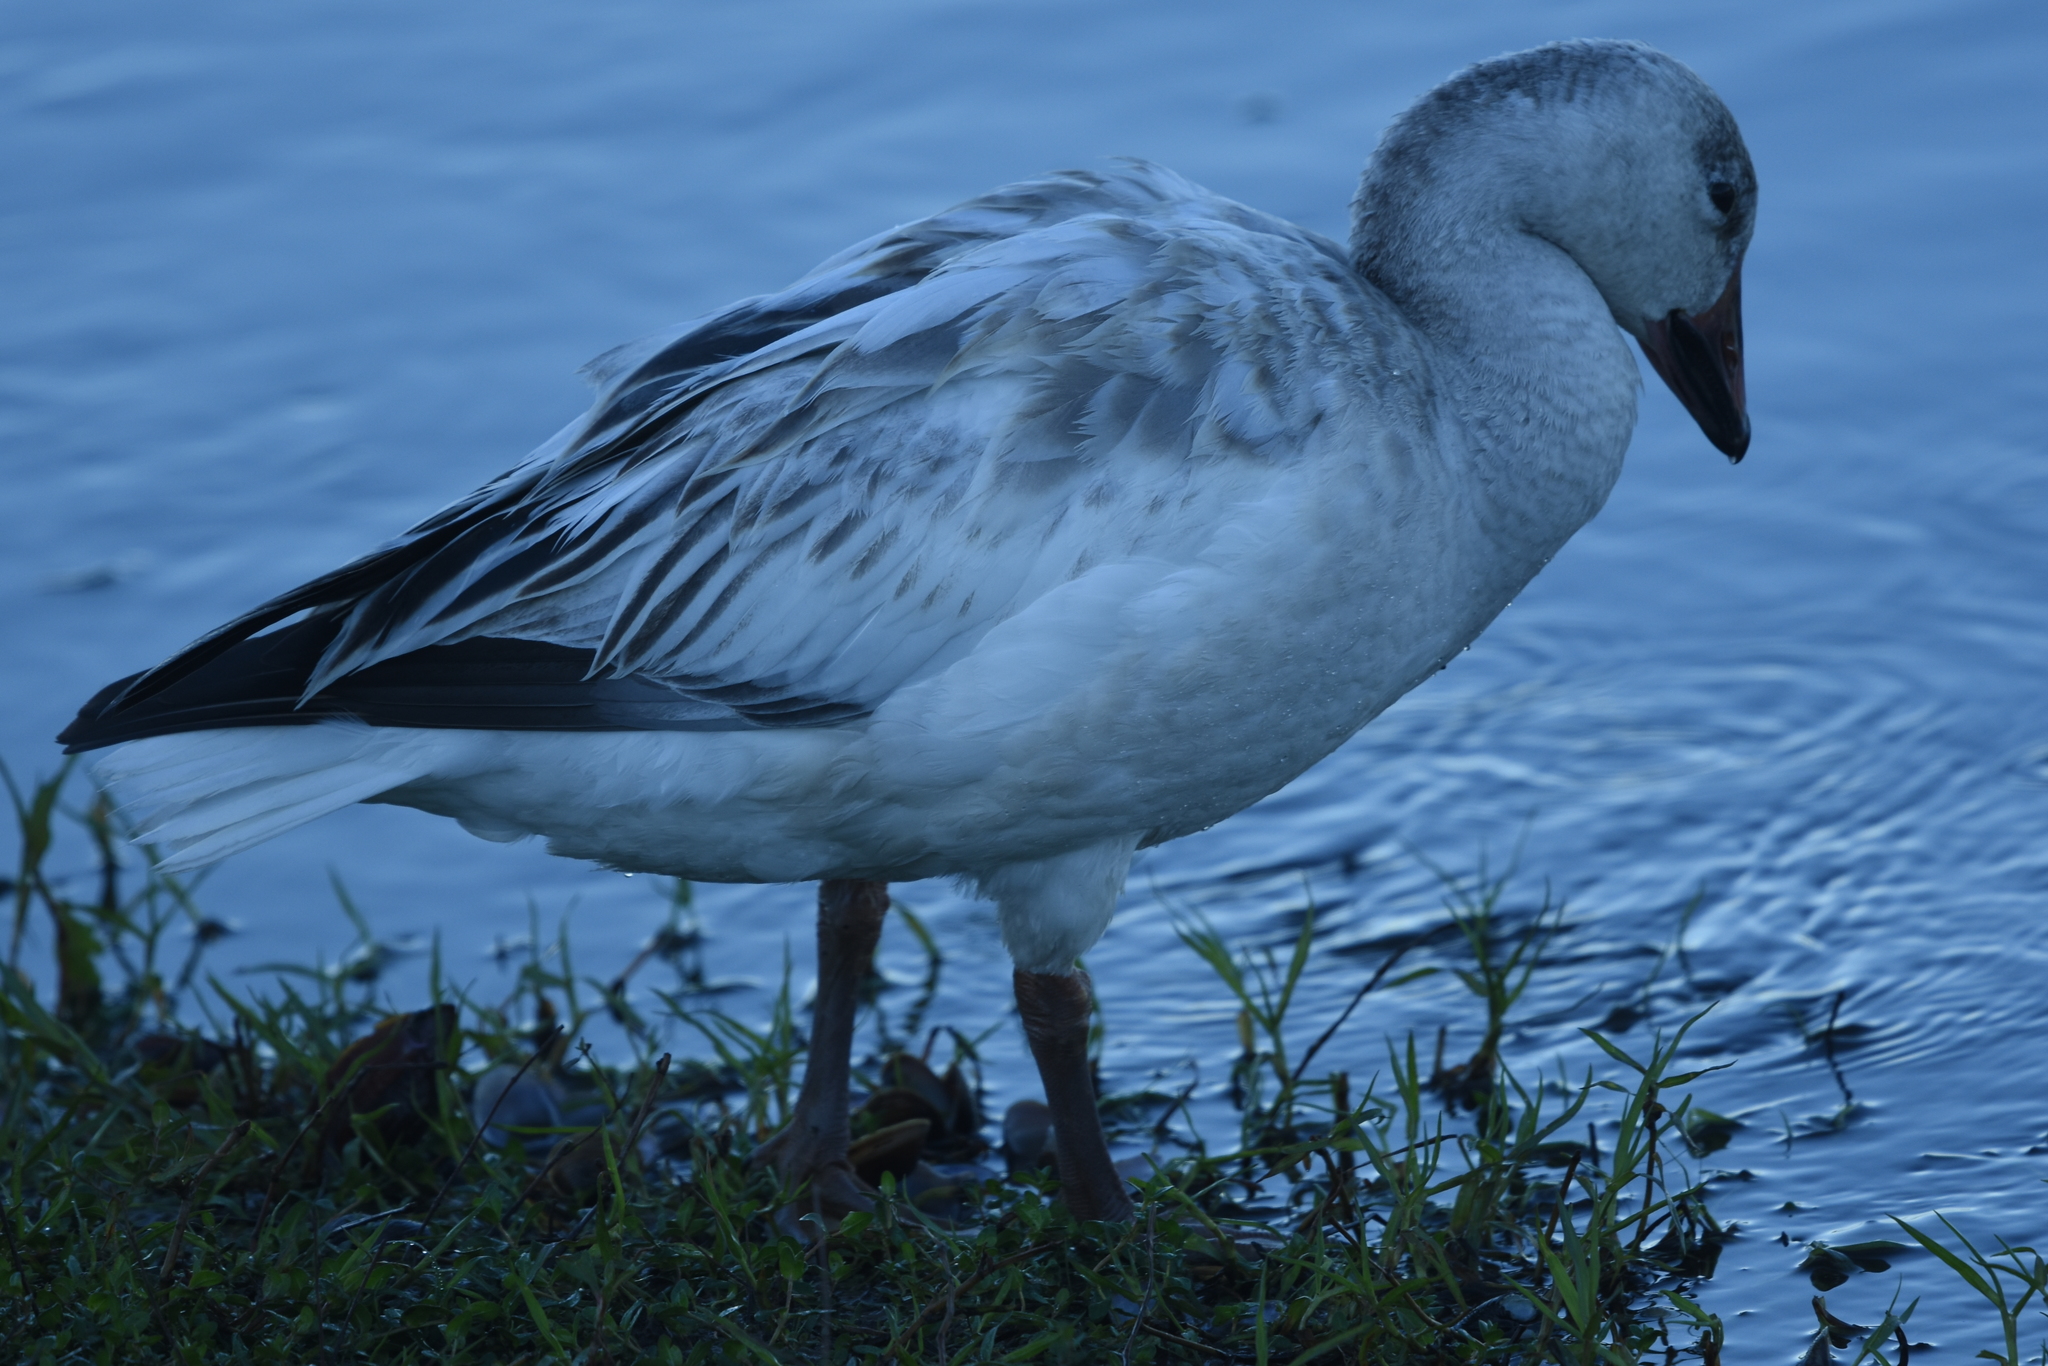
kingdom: Animalia
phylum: Chordata
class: Aves
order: Anseriformes
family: Anatidae
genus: Anser
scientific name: Anser caerulescens
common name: Snow goose
